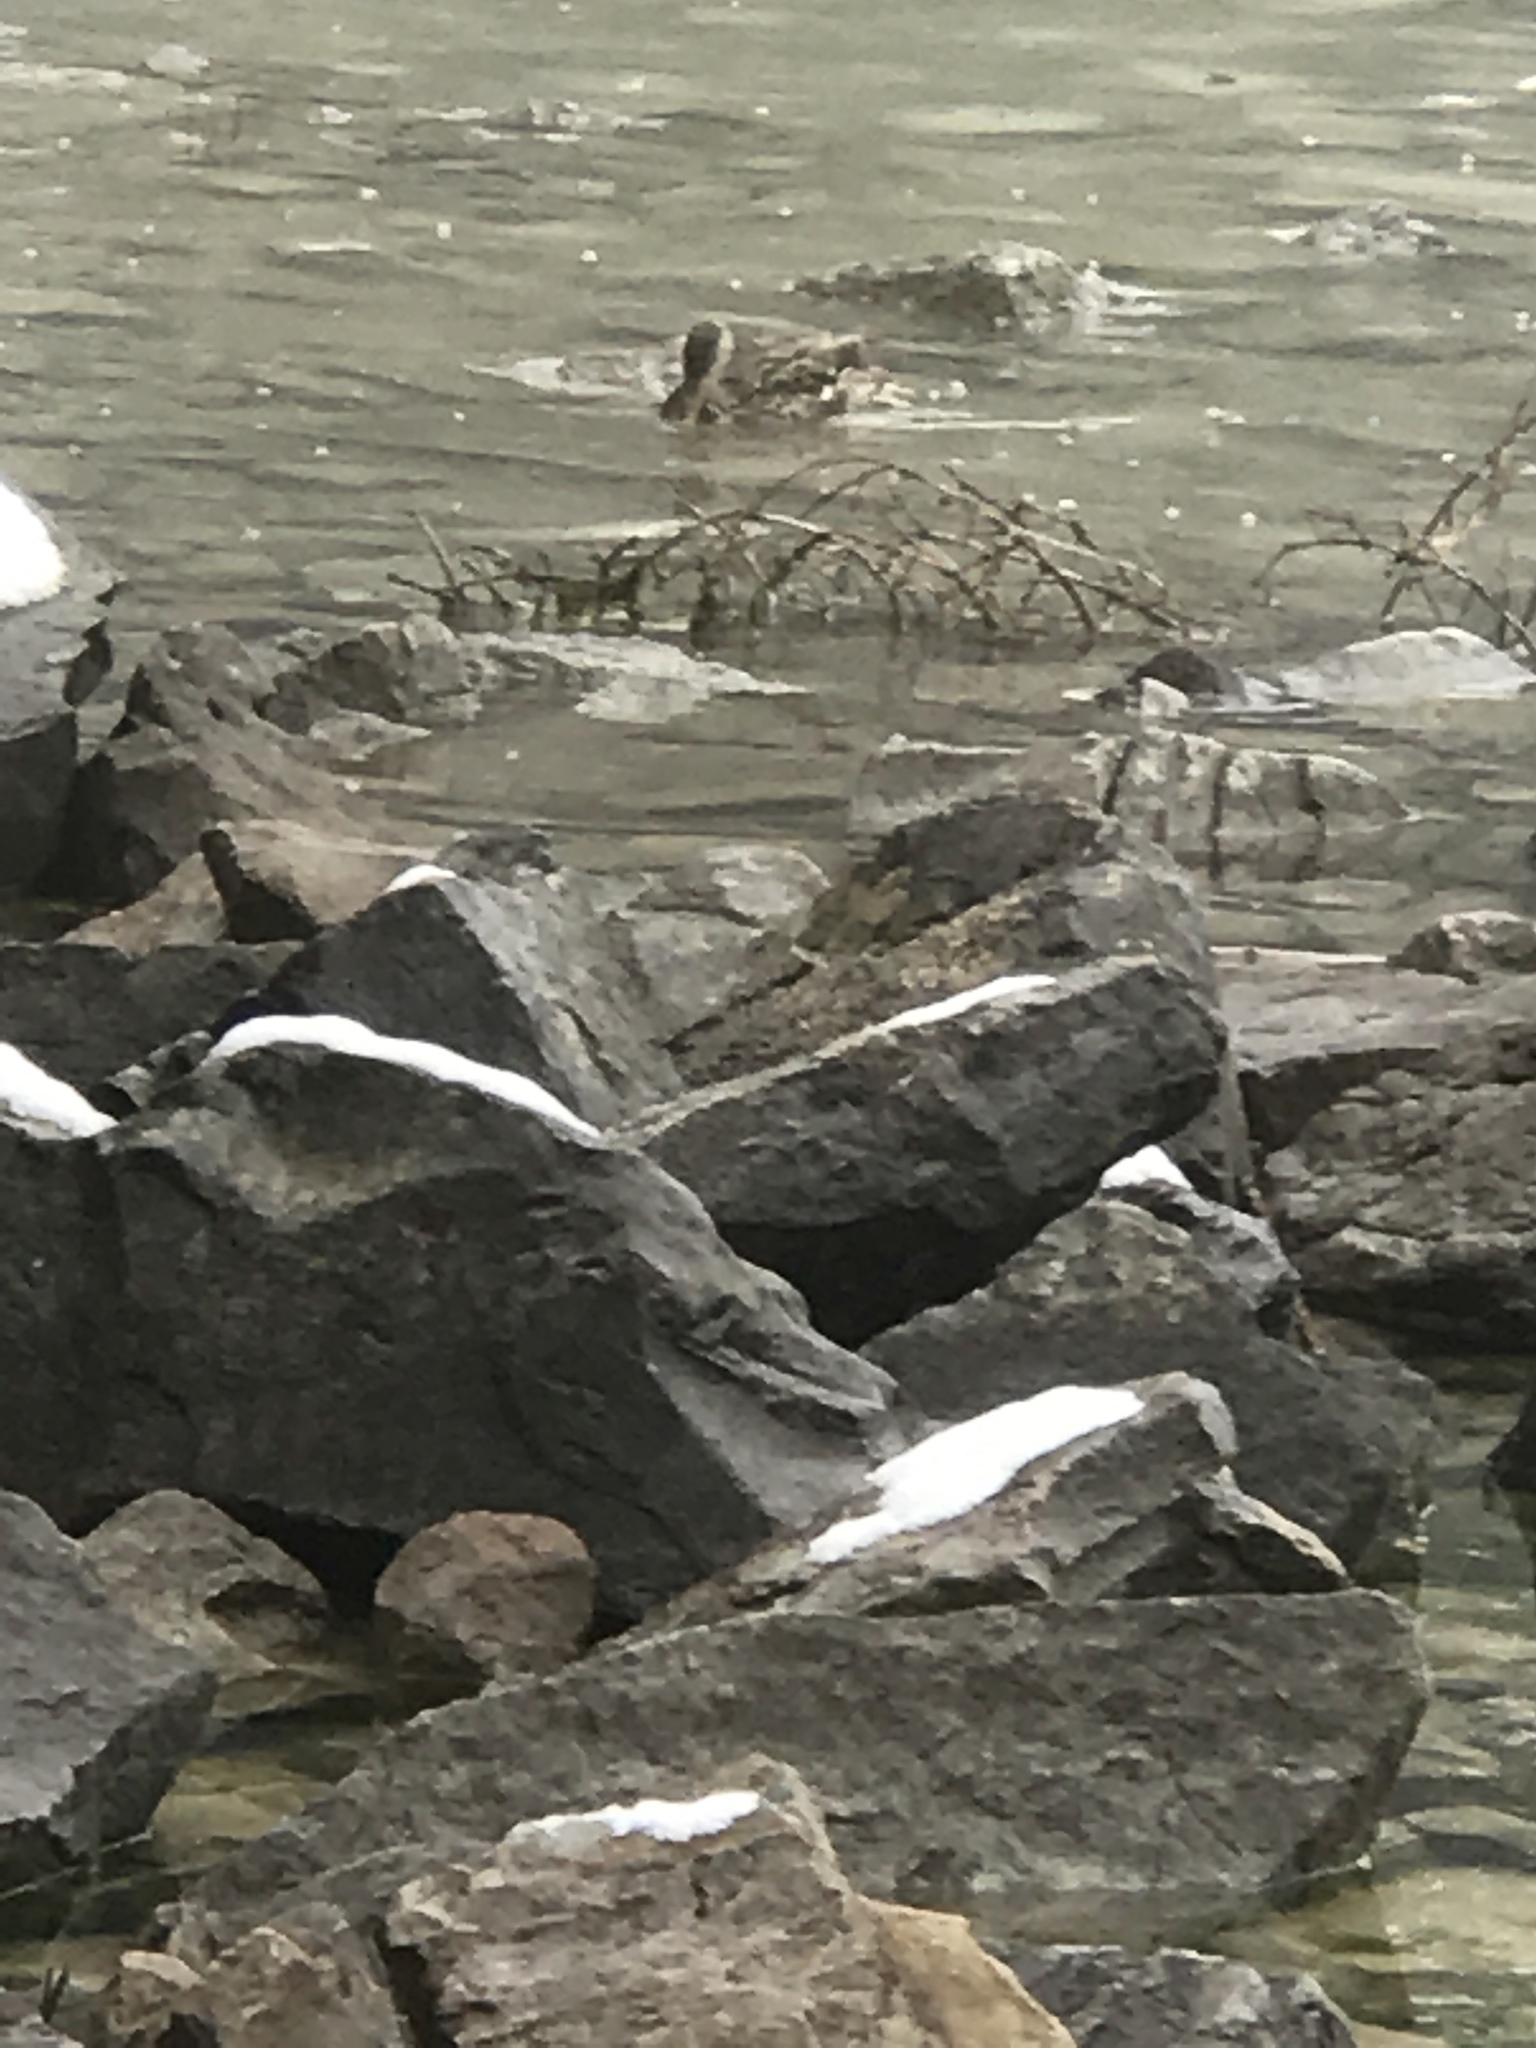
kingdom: Animalia
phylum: Chordata
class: Aves
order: Anseriformes
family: Anatidae
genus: Anas
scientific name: Anas platyrhynchos
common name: Mallard
